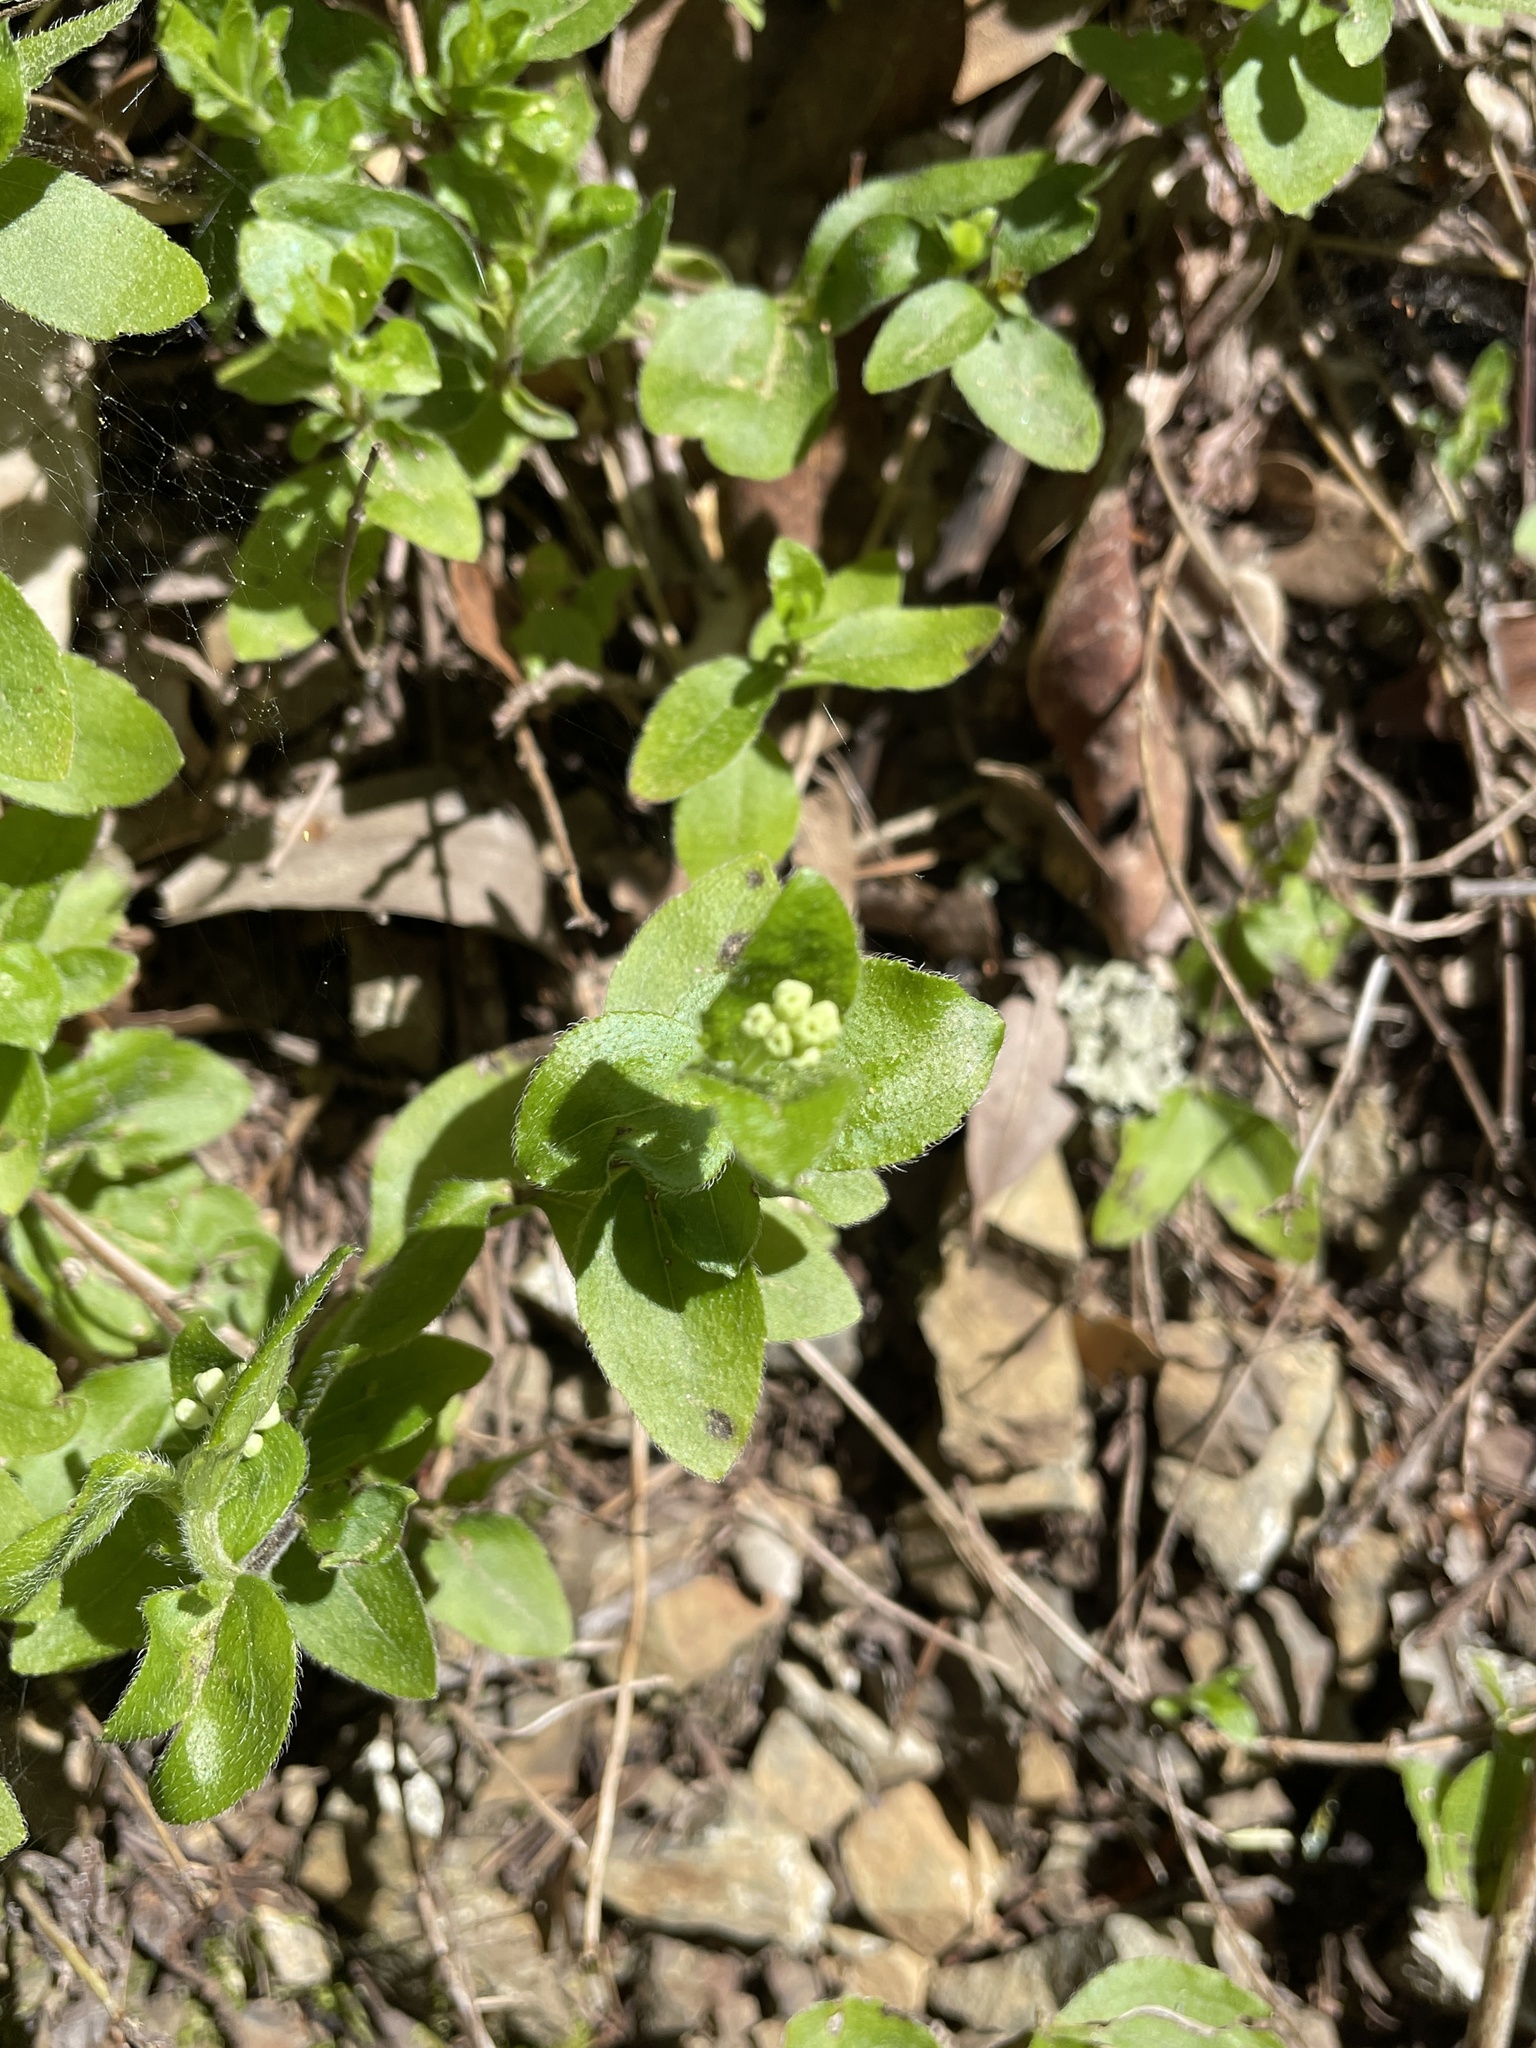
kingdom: Plantae
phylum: Tracheophyta
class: Magnoliopsida
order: Cornales
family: Hydrangeaceae
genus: Whipplea
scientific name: Whipplea modesta
